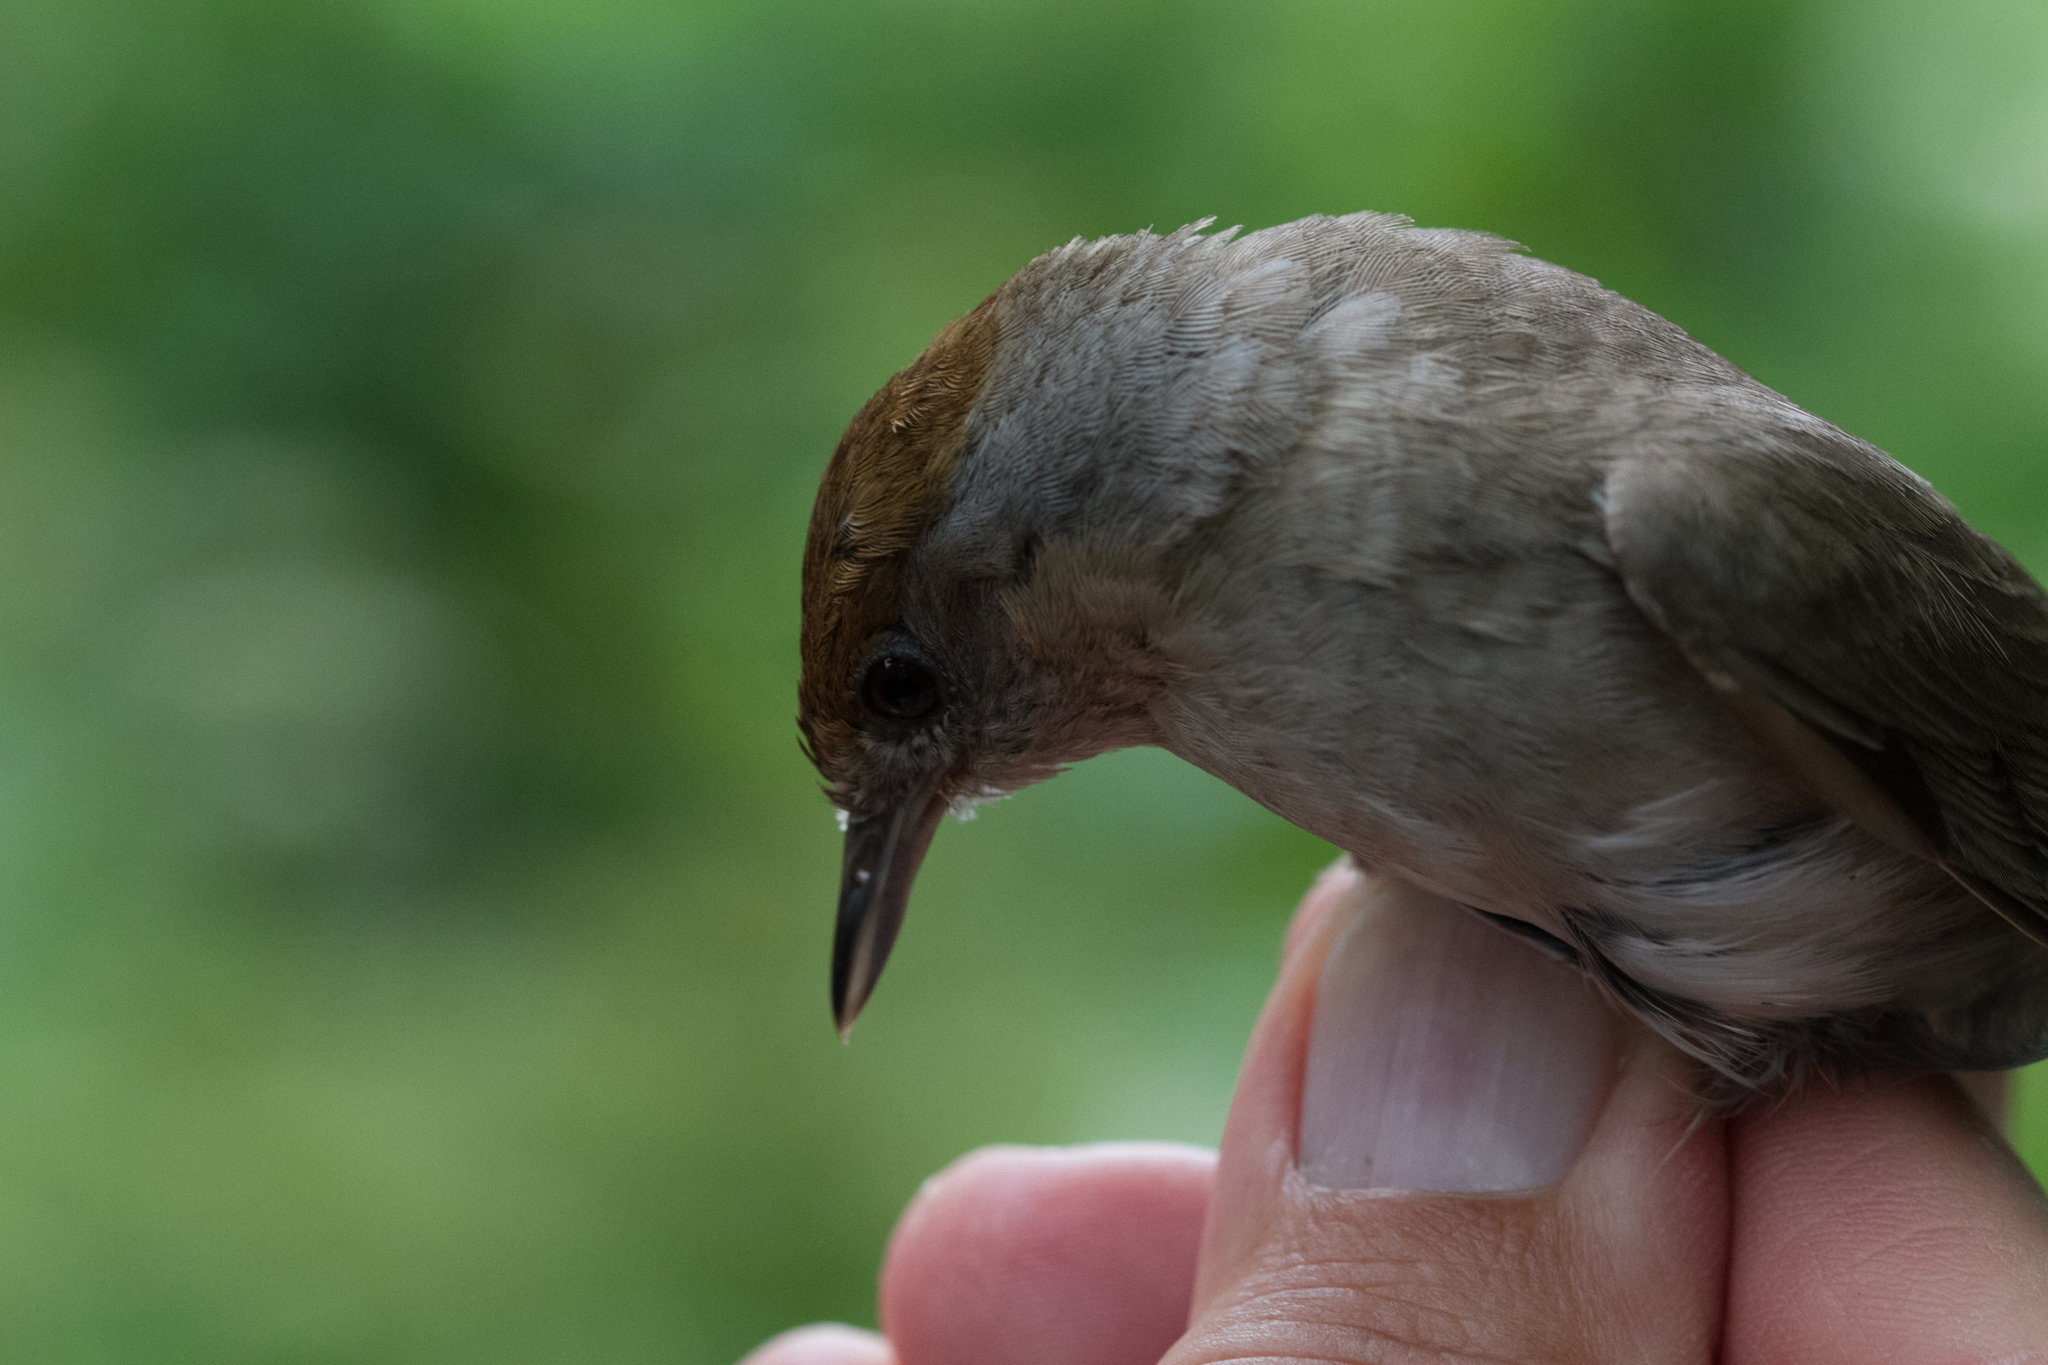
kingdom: Animalia
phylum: Chordata
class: Aves
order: Passeriformes
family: Sylviidae
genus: Sylvia
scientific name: Sylvia atricapilla
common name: Eurasian blackcap
